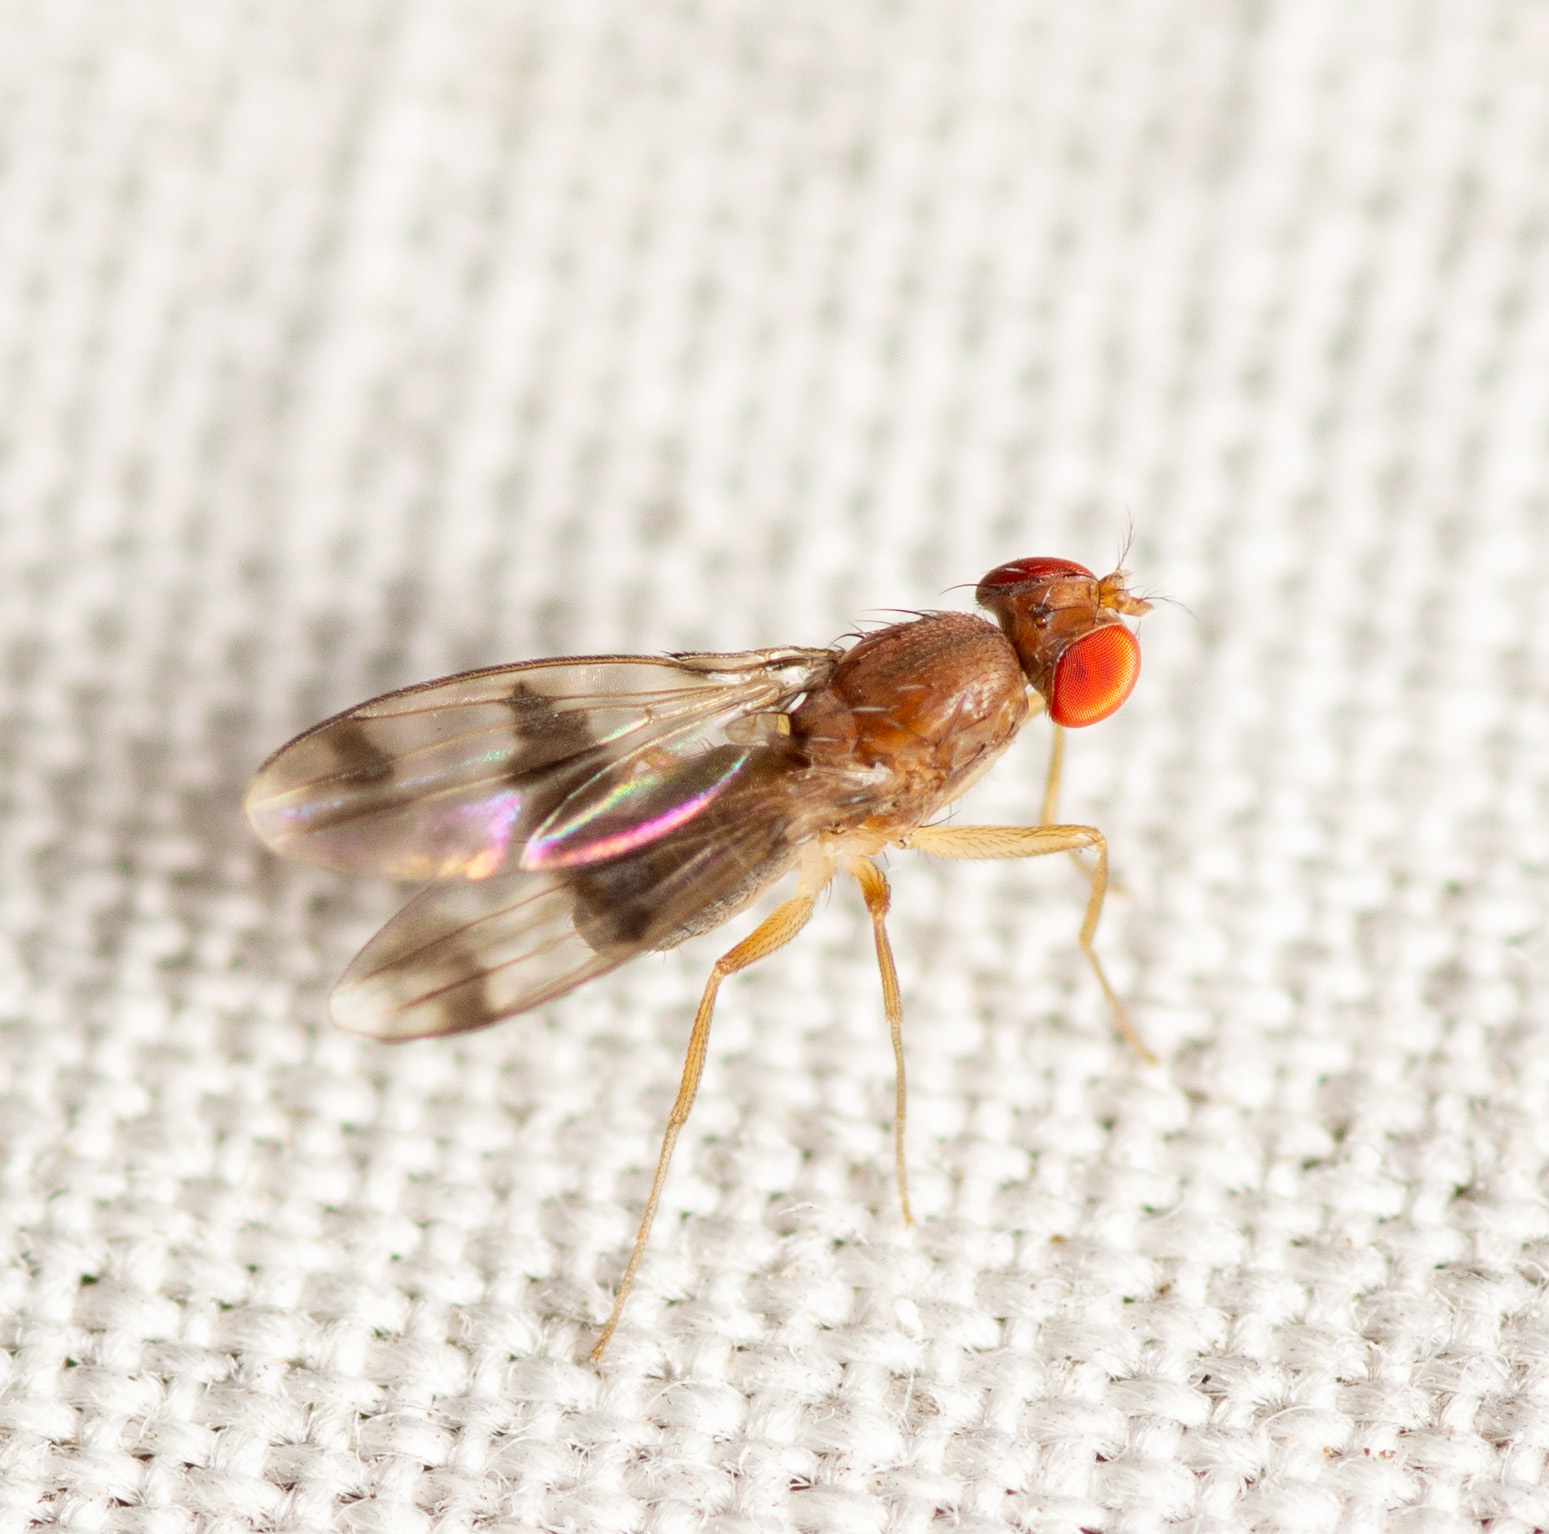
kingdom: Animalia
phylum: Arthropoda
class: Insecta
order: Diptera
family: Drosophilidae
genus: Chymomyza
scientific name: Chymomyza amoena
